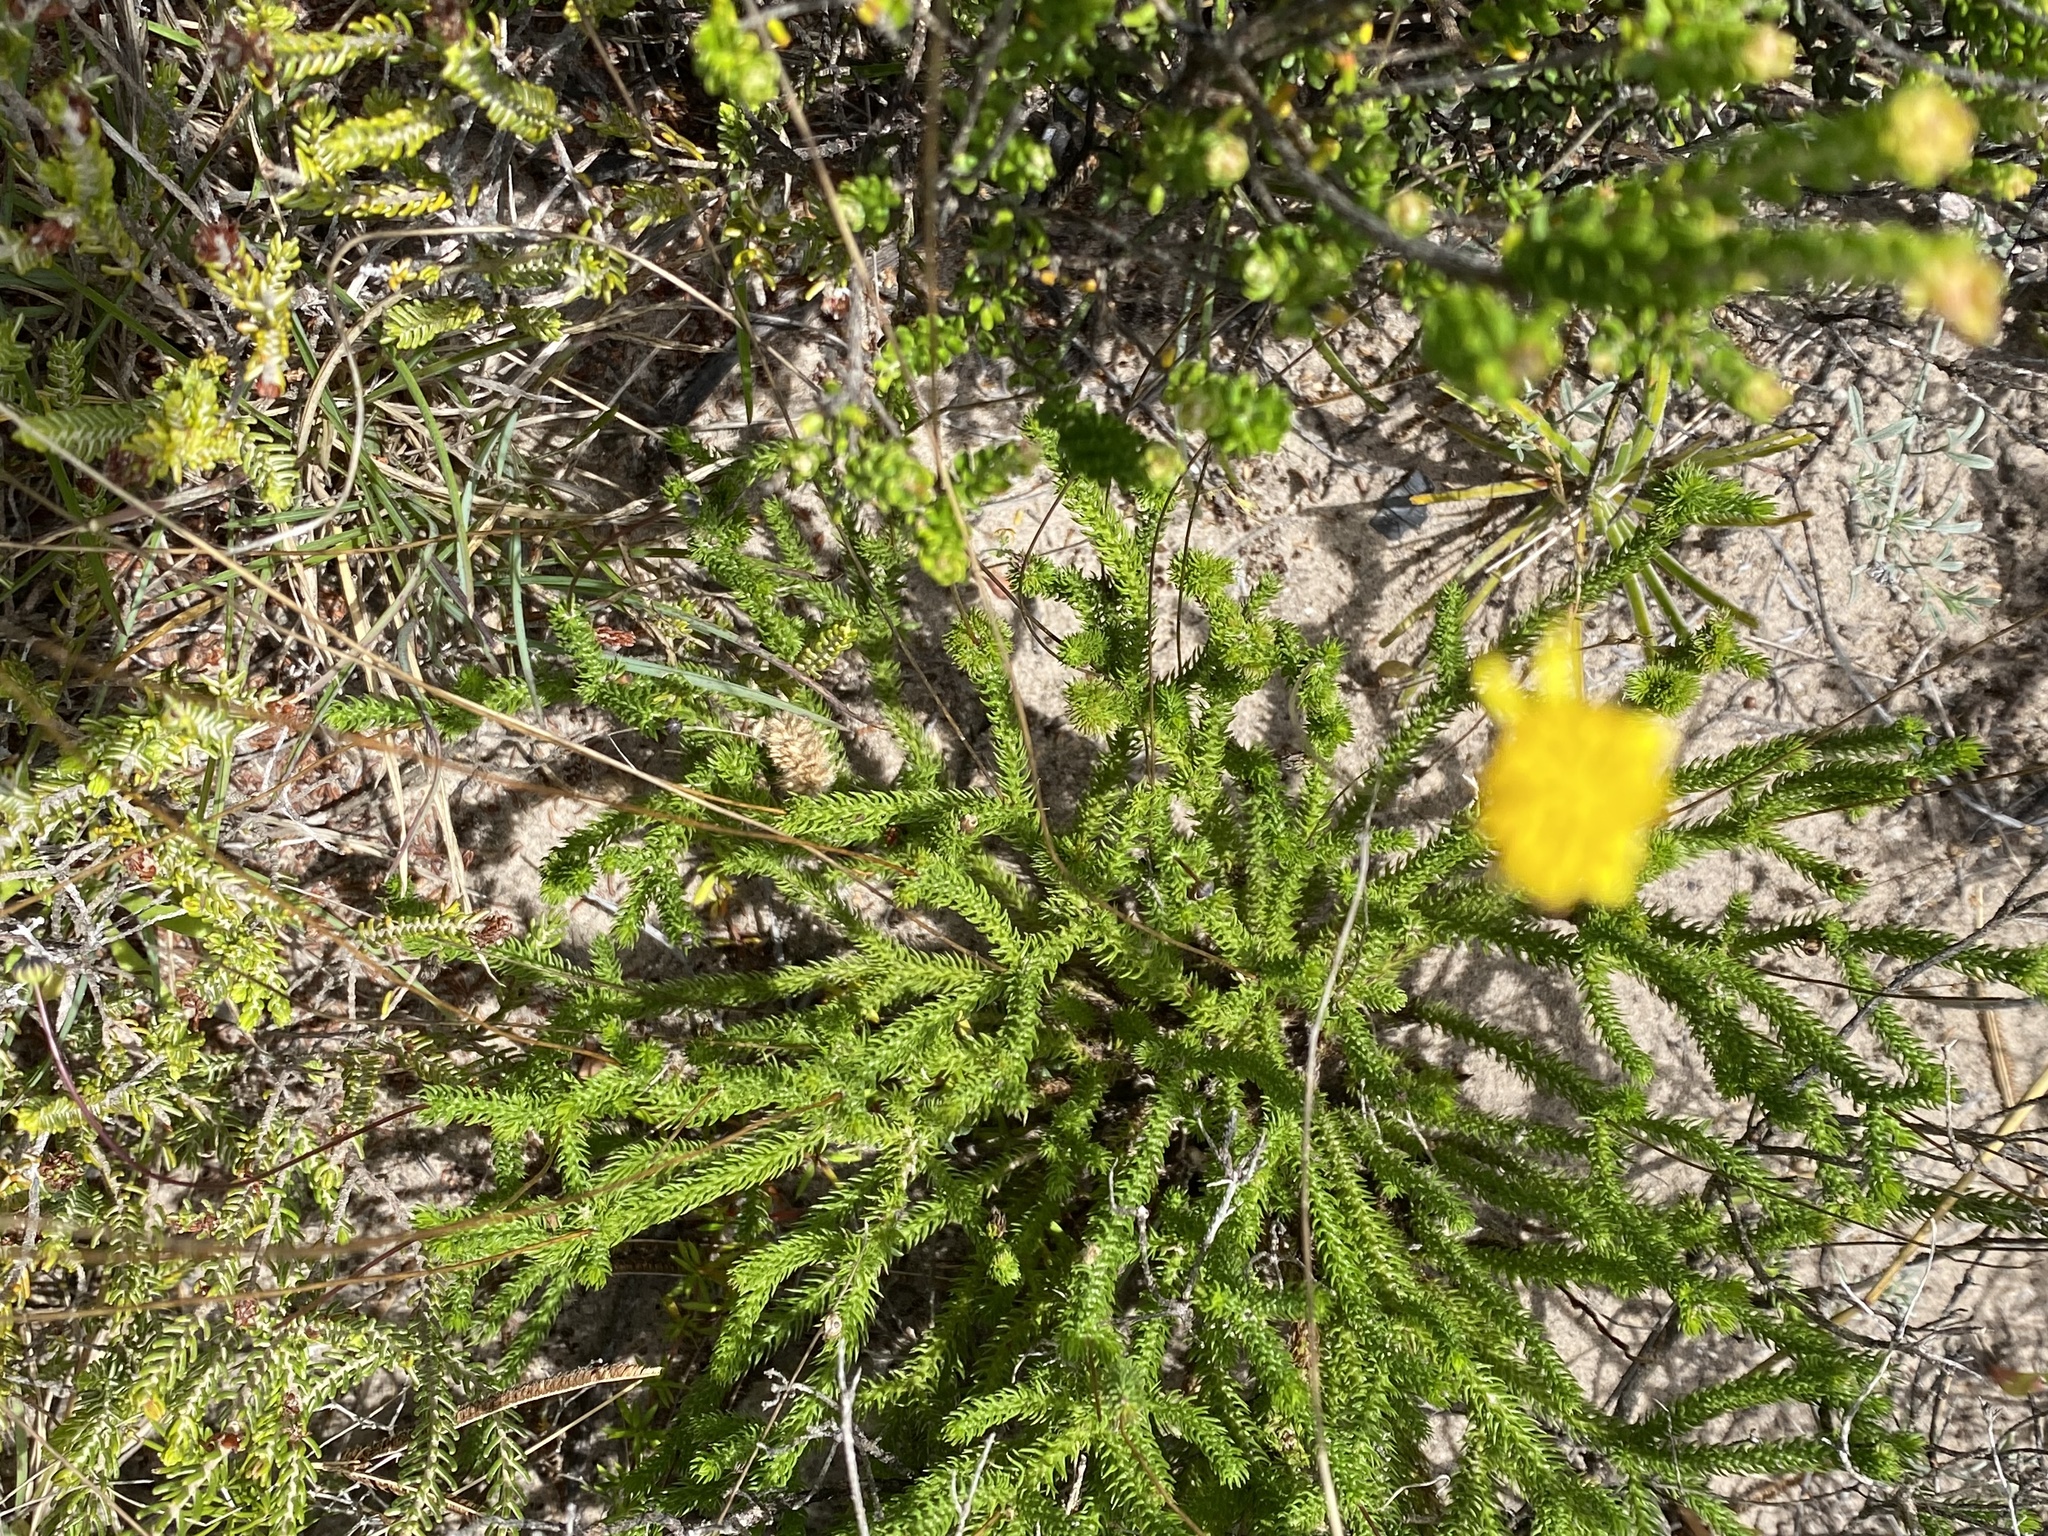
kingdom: Plantae
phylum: Tracheophyta
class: Magnoliopsida
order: Asterales
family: Asteraceae
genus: Euryops
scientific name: Euryops ericoides
